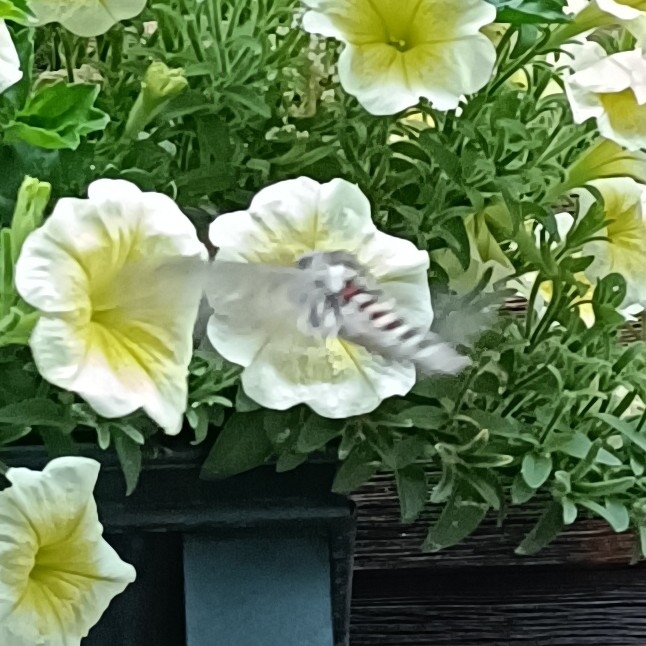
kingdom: Animalia
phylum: Arthropoda
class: Insecta
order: Lepidoptera
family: Sphingidae
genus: Agrius
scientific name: Agrius convolvuli
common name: Convolvulus hawkmoth
